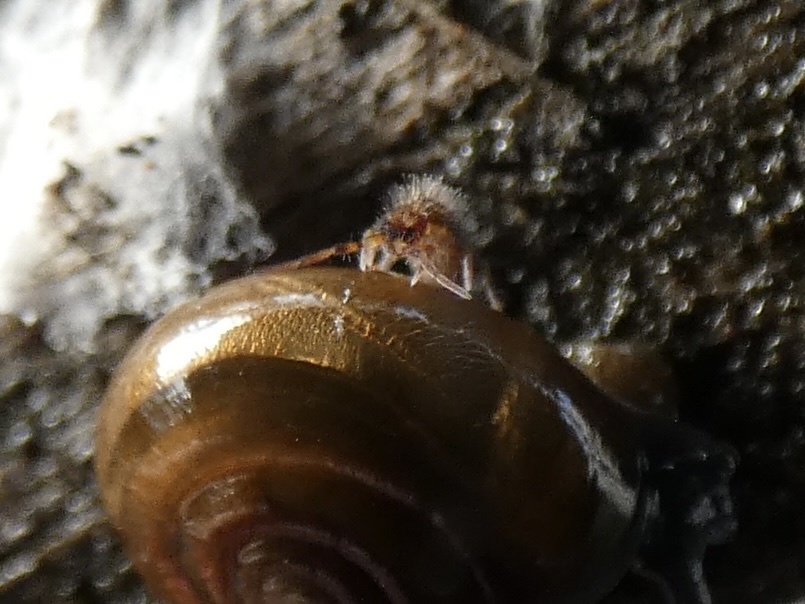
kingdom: Animalia
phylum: Arthropoda
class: Collembola
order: Entomobryomorpha
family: Orchesellidae
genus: Orchesella
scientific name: Orchesella cincta
